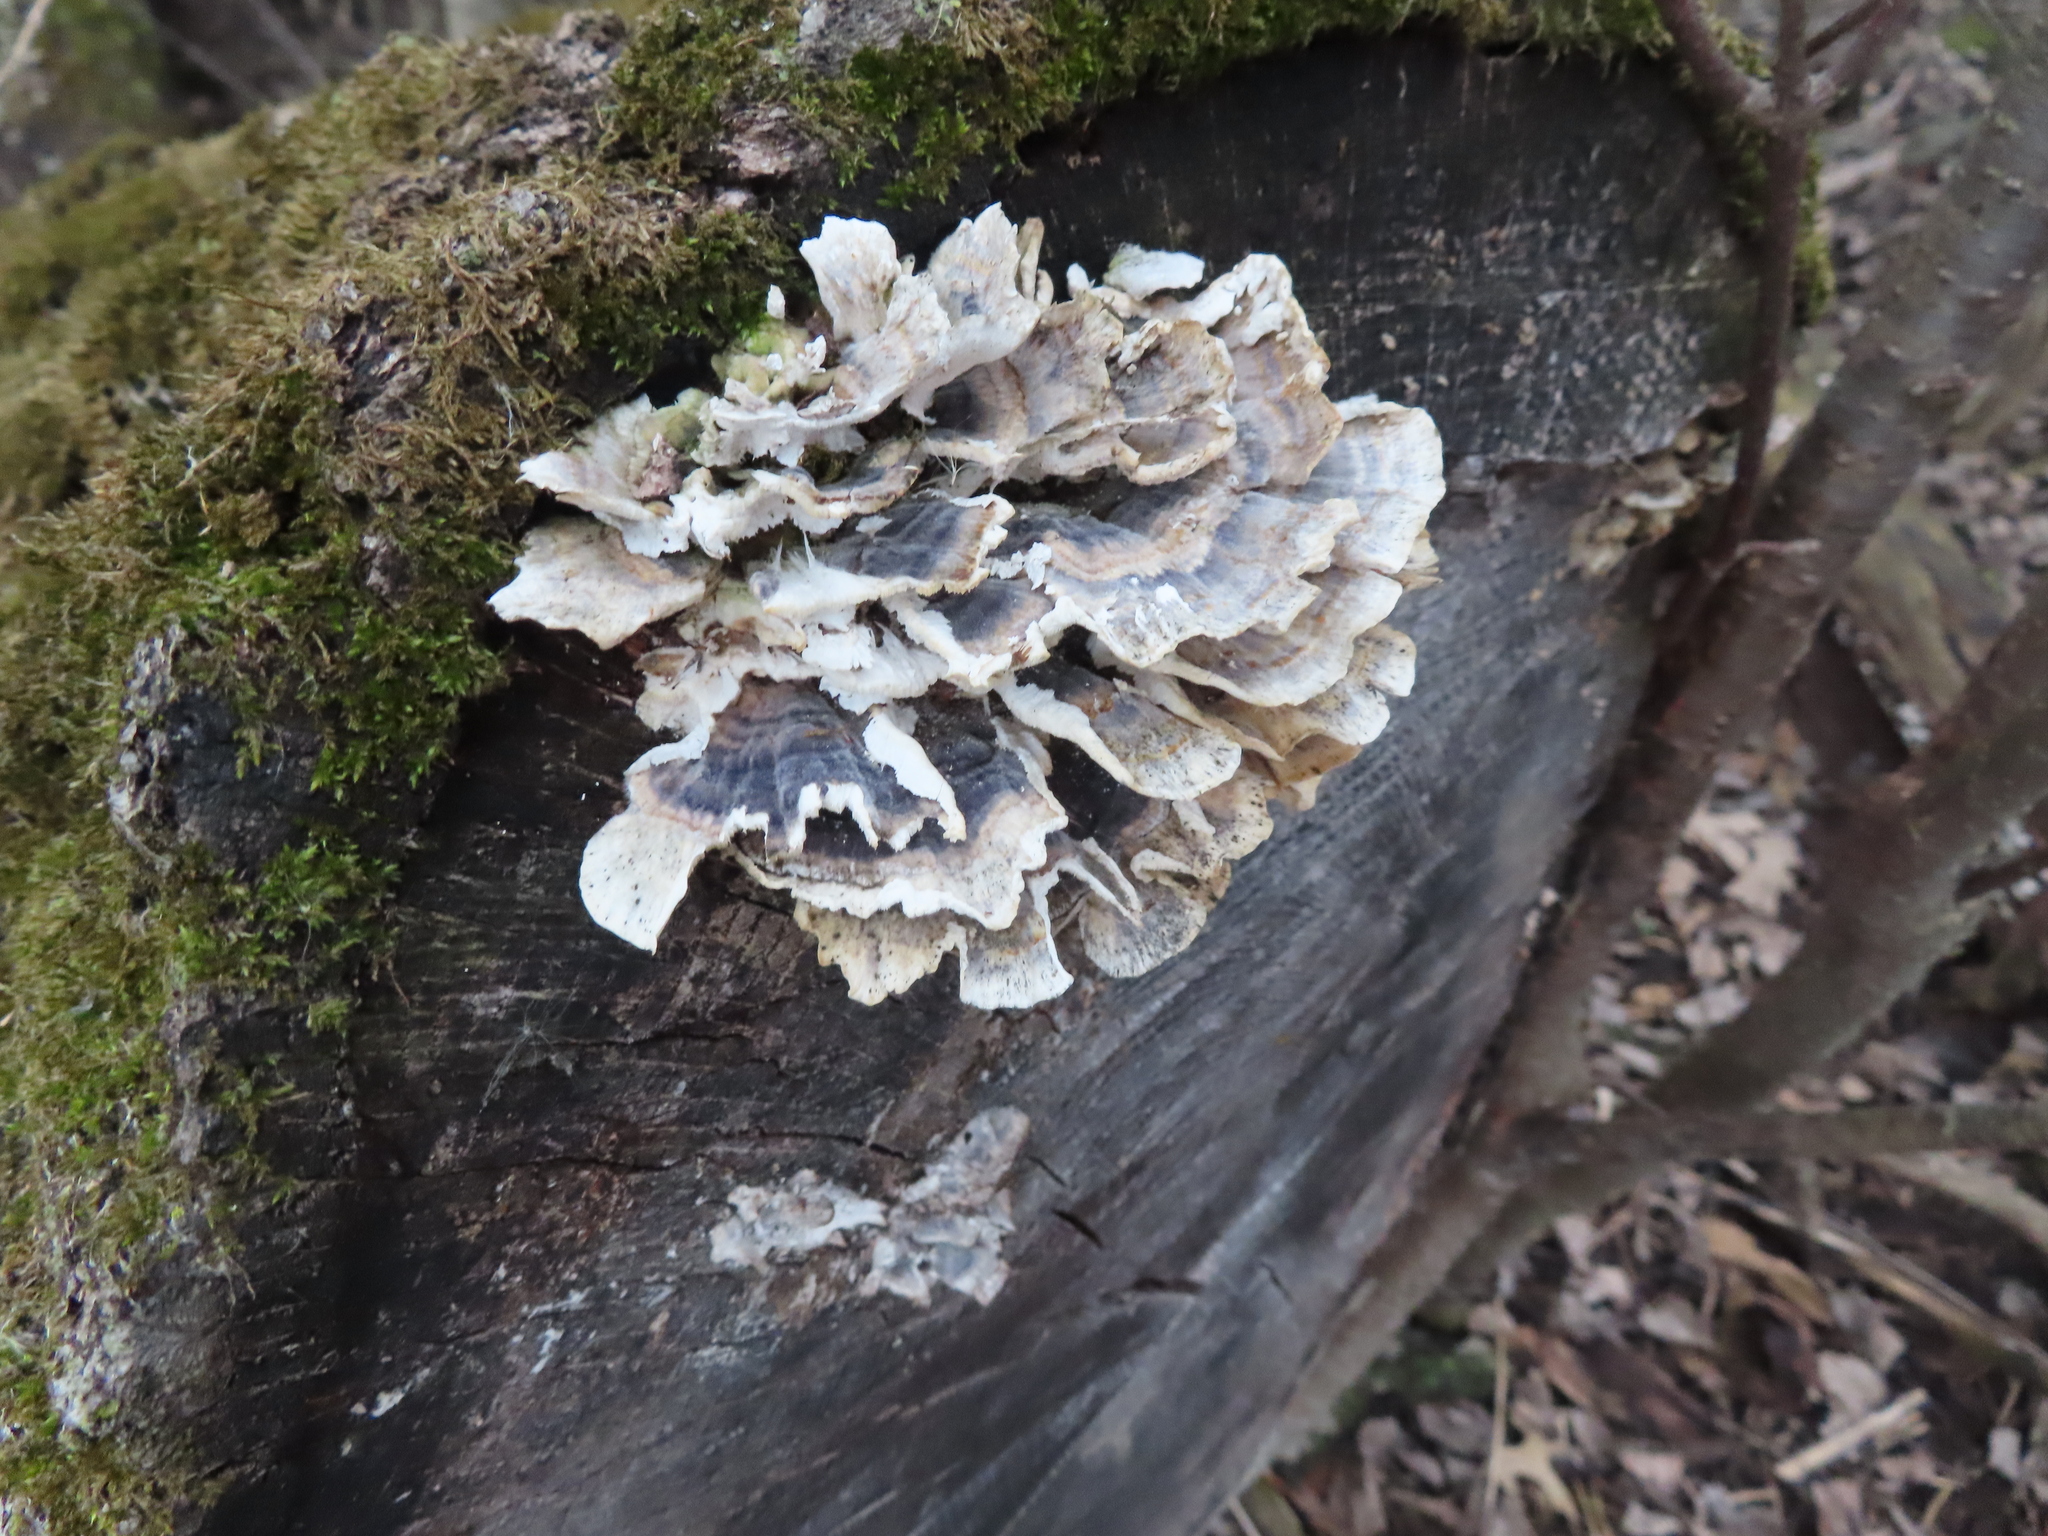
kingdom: Fungi
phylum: Basidiomycota
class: Agaricomycetes
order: Polyporales
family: Polyporaceae
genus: Trametes
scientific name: Trametes versicolor
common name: Turkeytail
